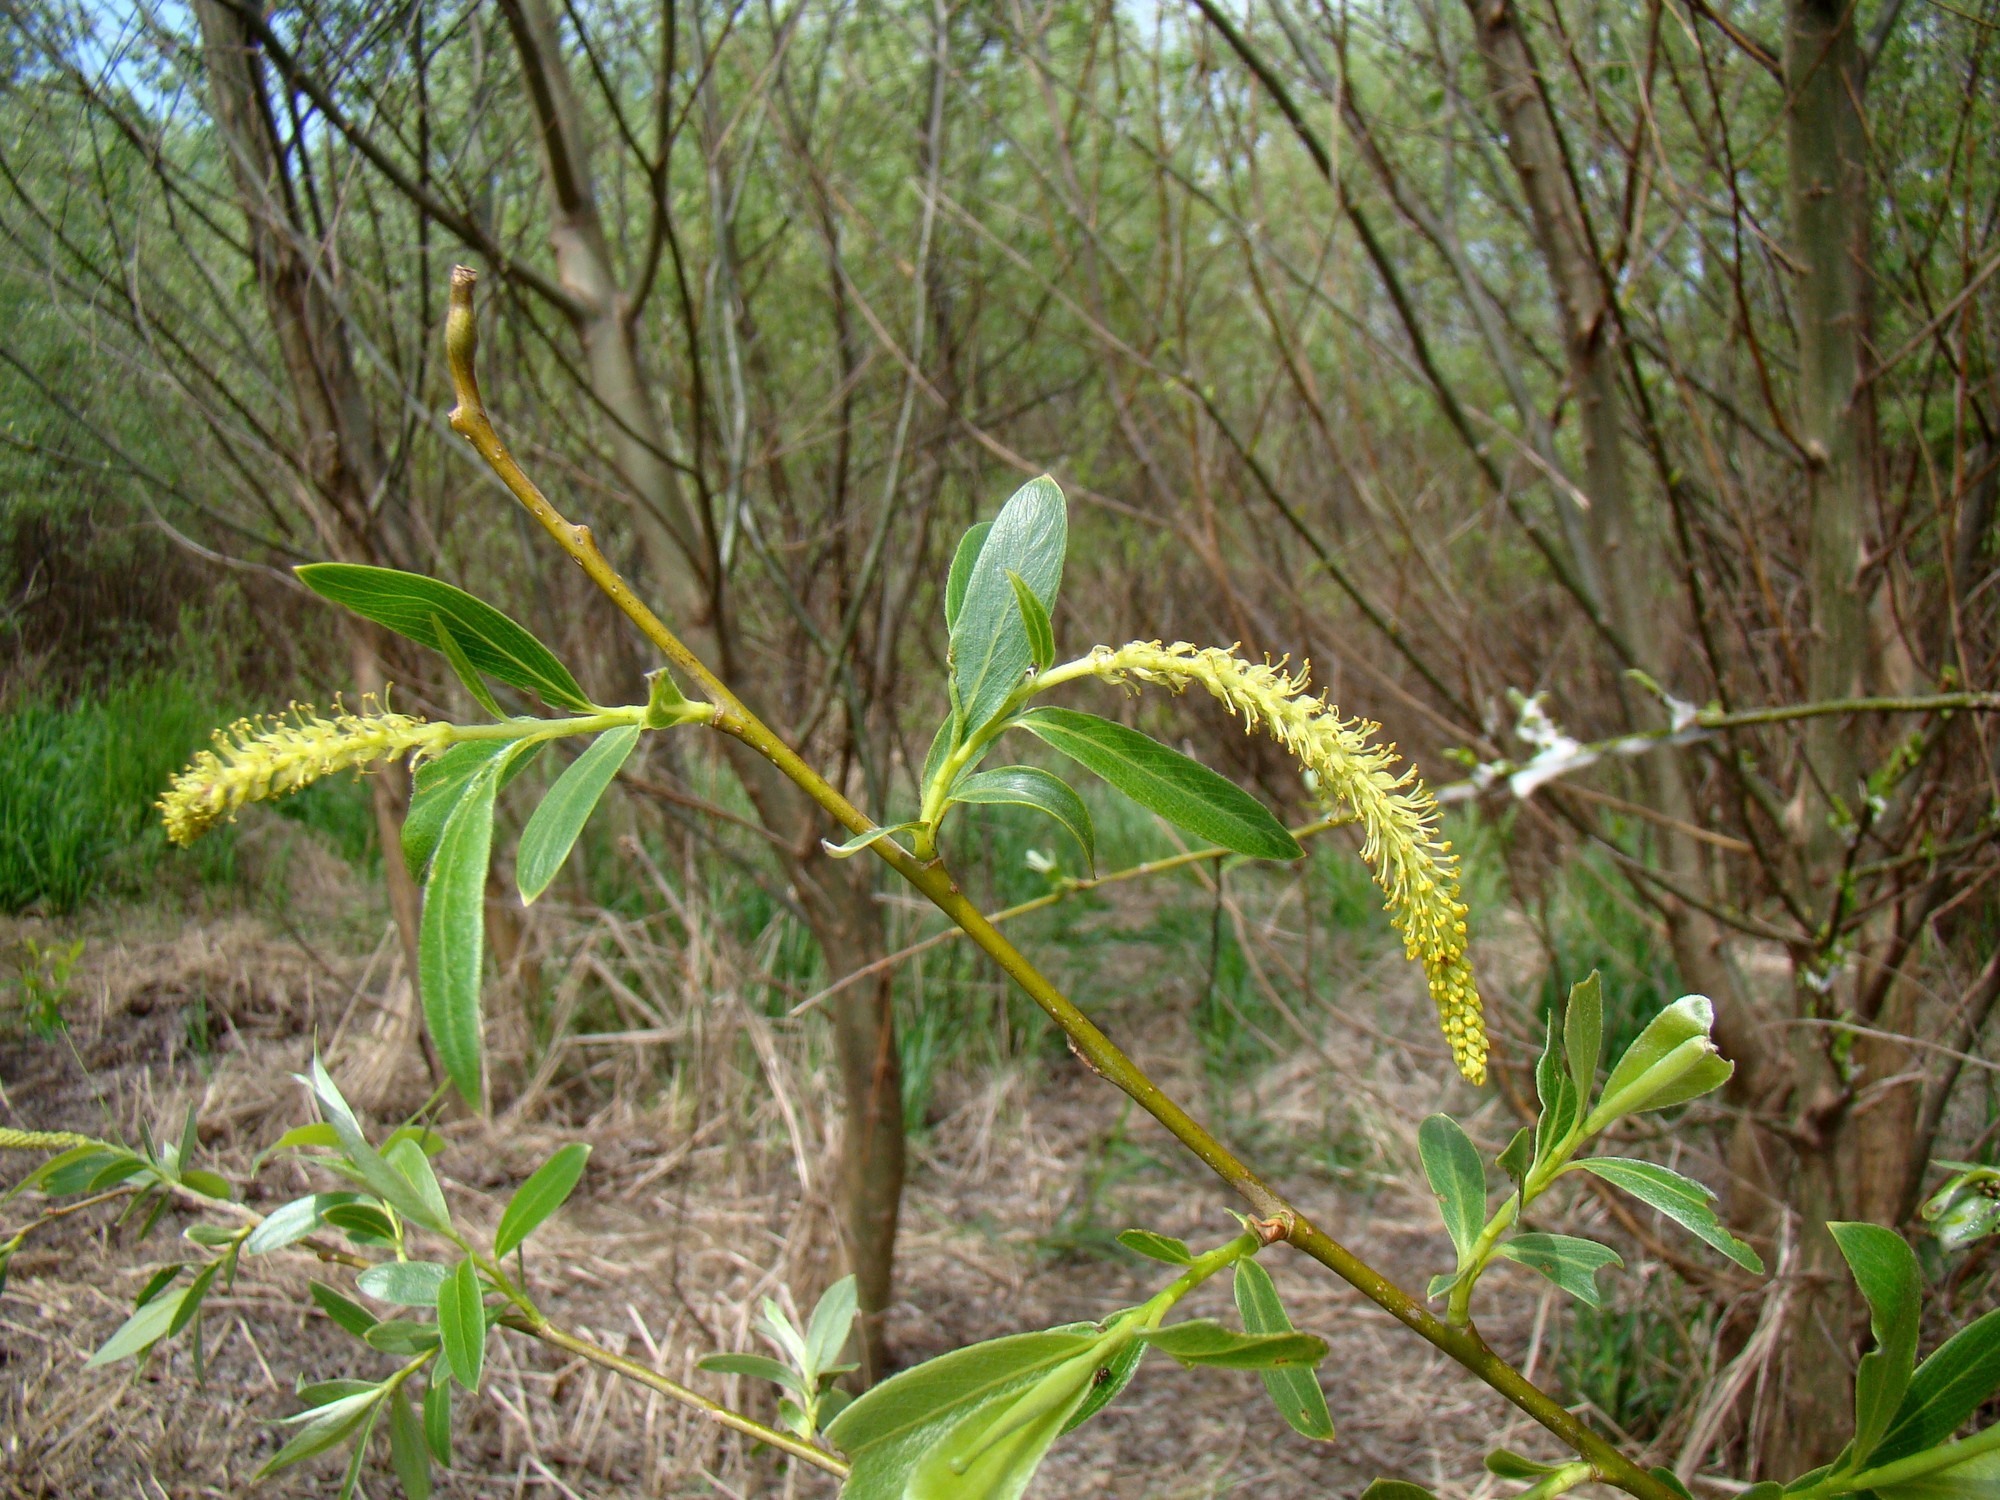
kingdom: Plantae
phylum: Tracheophyta
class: Magnoliopsida
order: Malpighiales
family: Salicaceae
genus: Salix
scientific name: Salix alba
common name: White willow
